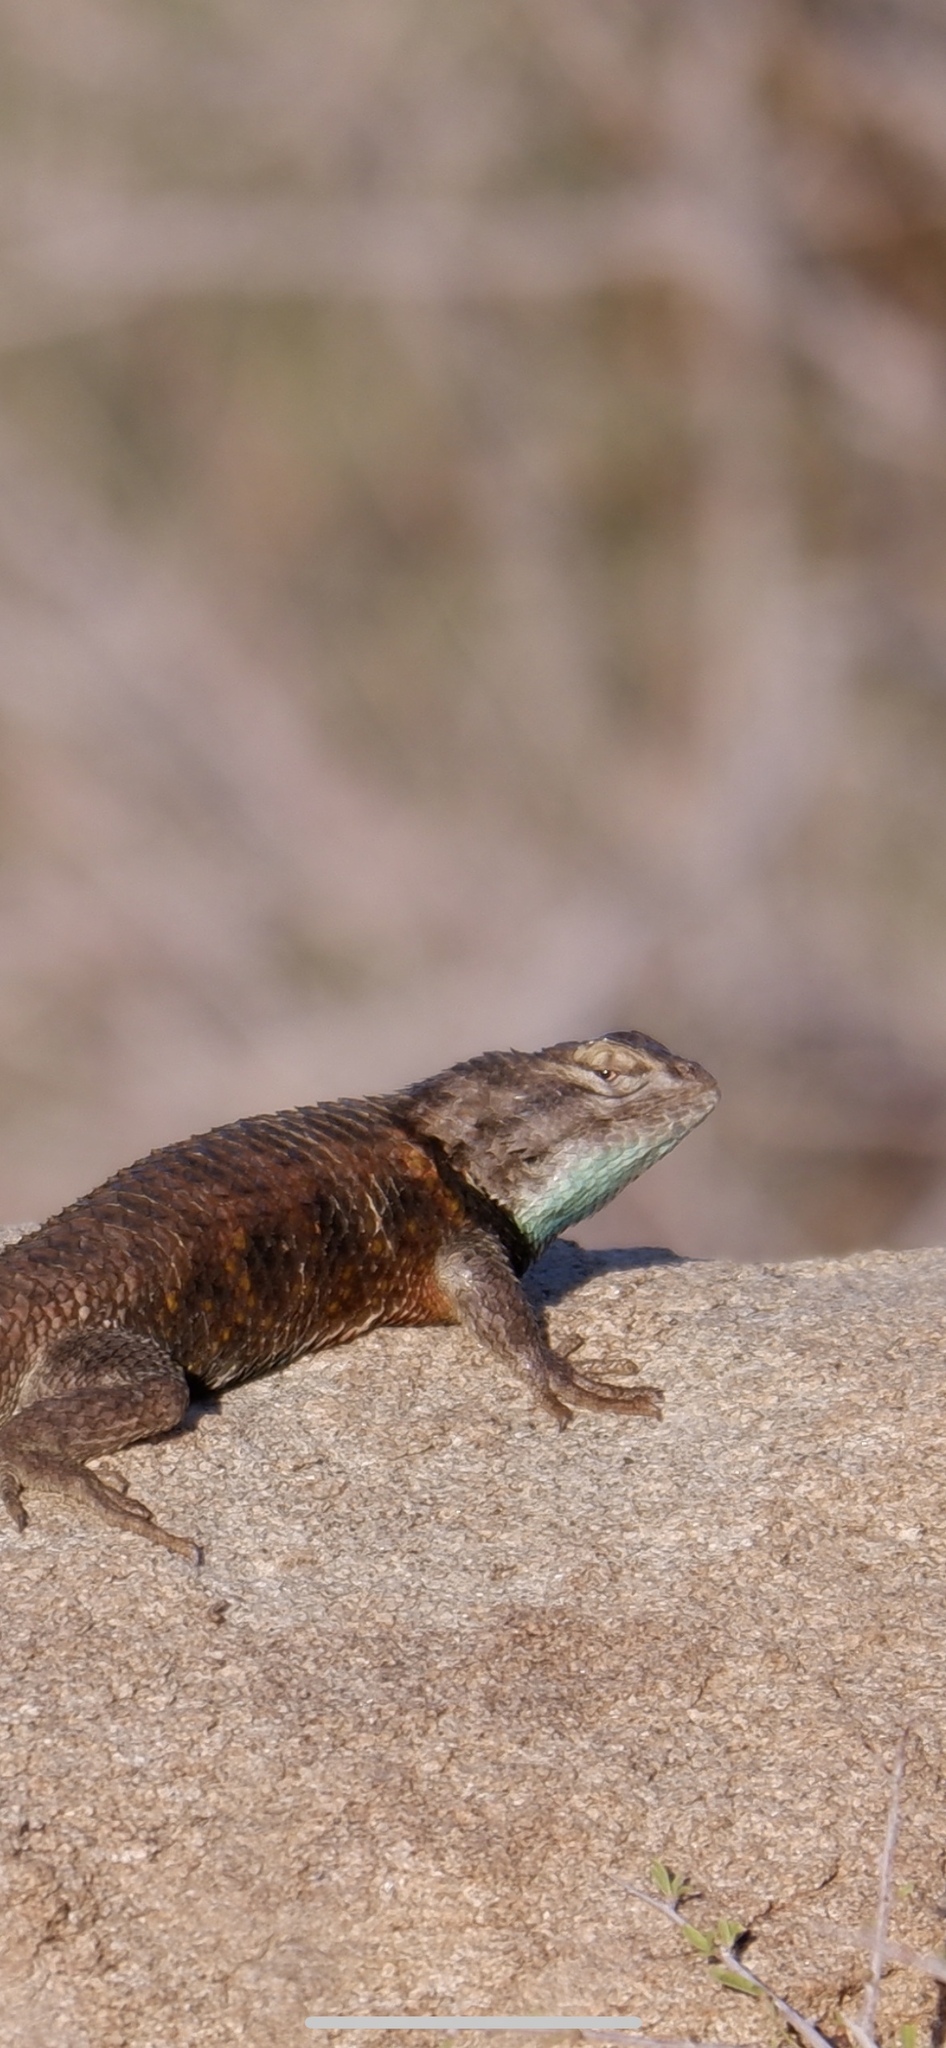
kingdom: Animalia
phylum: Chordata
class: Squamata
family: Phrynosomatidae
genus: Sceloporus
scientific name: Sceloporus magister
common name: Desert spiny lizard
